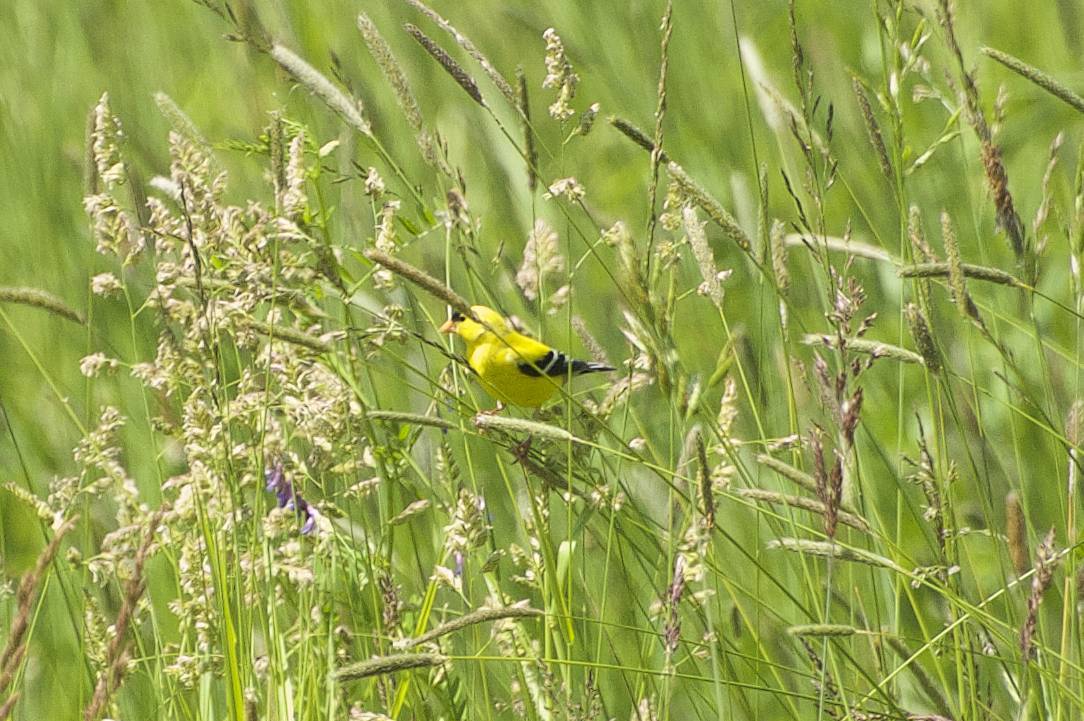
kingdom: Animalia
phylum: Chordata
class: Aves
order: Passeriformes
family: Fringillidae
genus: Spinus
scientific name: Spinus tristis
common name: American goldfinch
